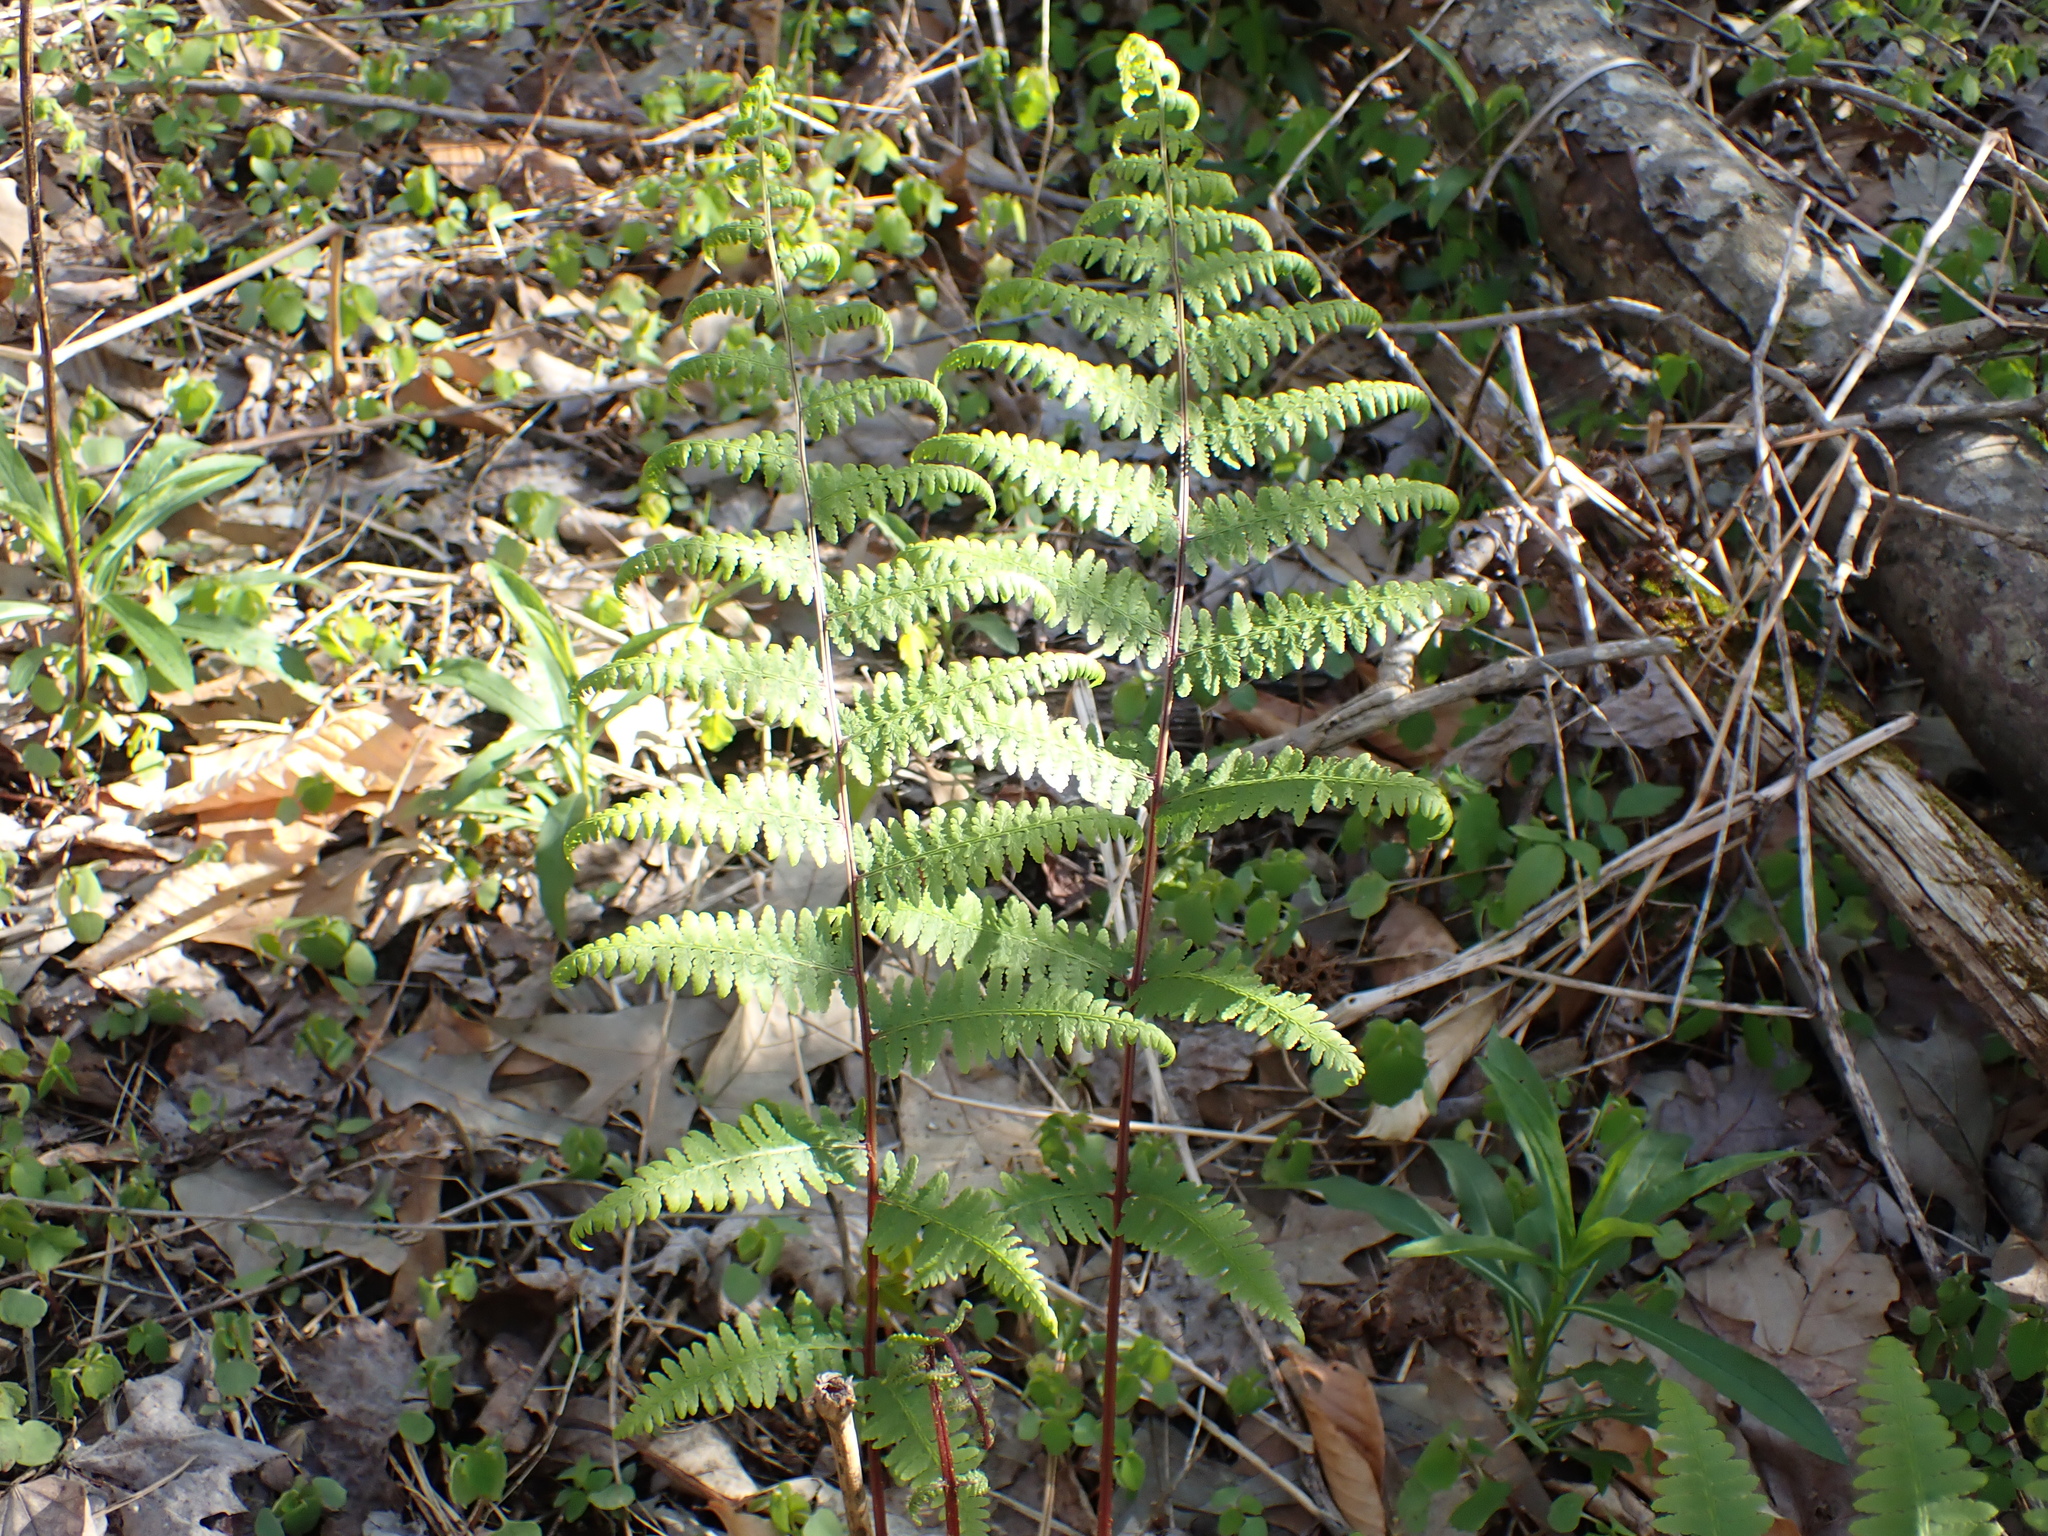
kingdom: Plantae
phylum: Tracheophyta
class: Polypodiopsida
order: Polypodiales
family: Athyriaceae
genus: Athyrium
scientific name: Athyrium asplenioides
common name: Southern lady fern
